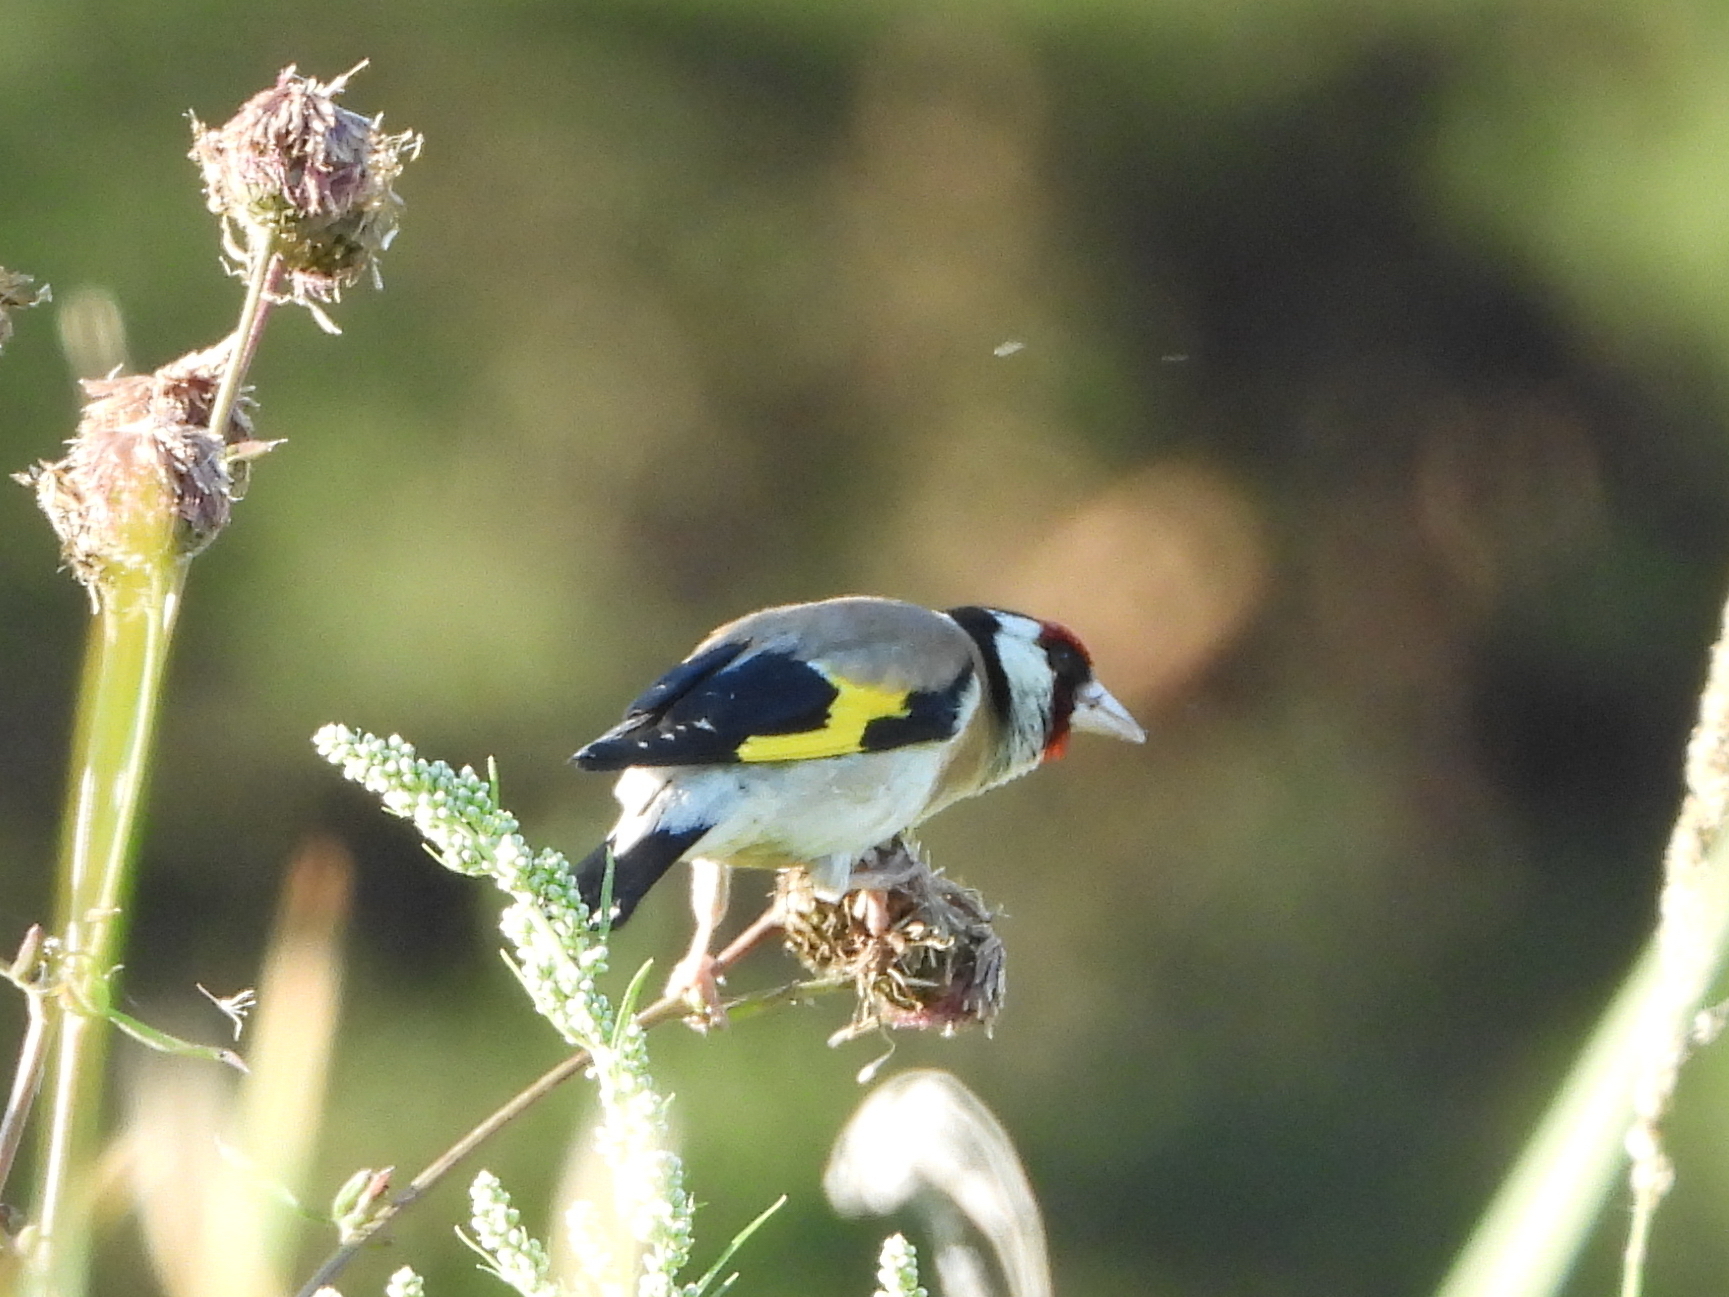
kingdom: Animalia
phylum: Chordata
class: Aves
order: Passeriformes
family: Fringillidae
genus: Carduelis
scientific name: Carduelis carduelis
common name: European goldfinch
